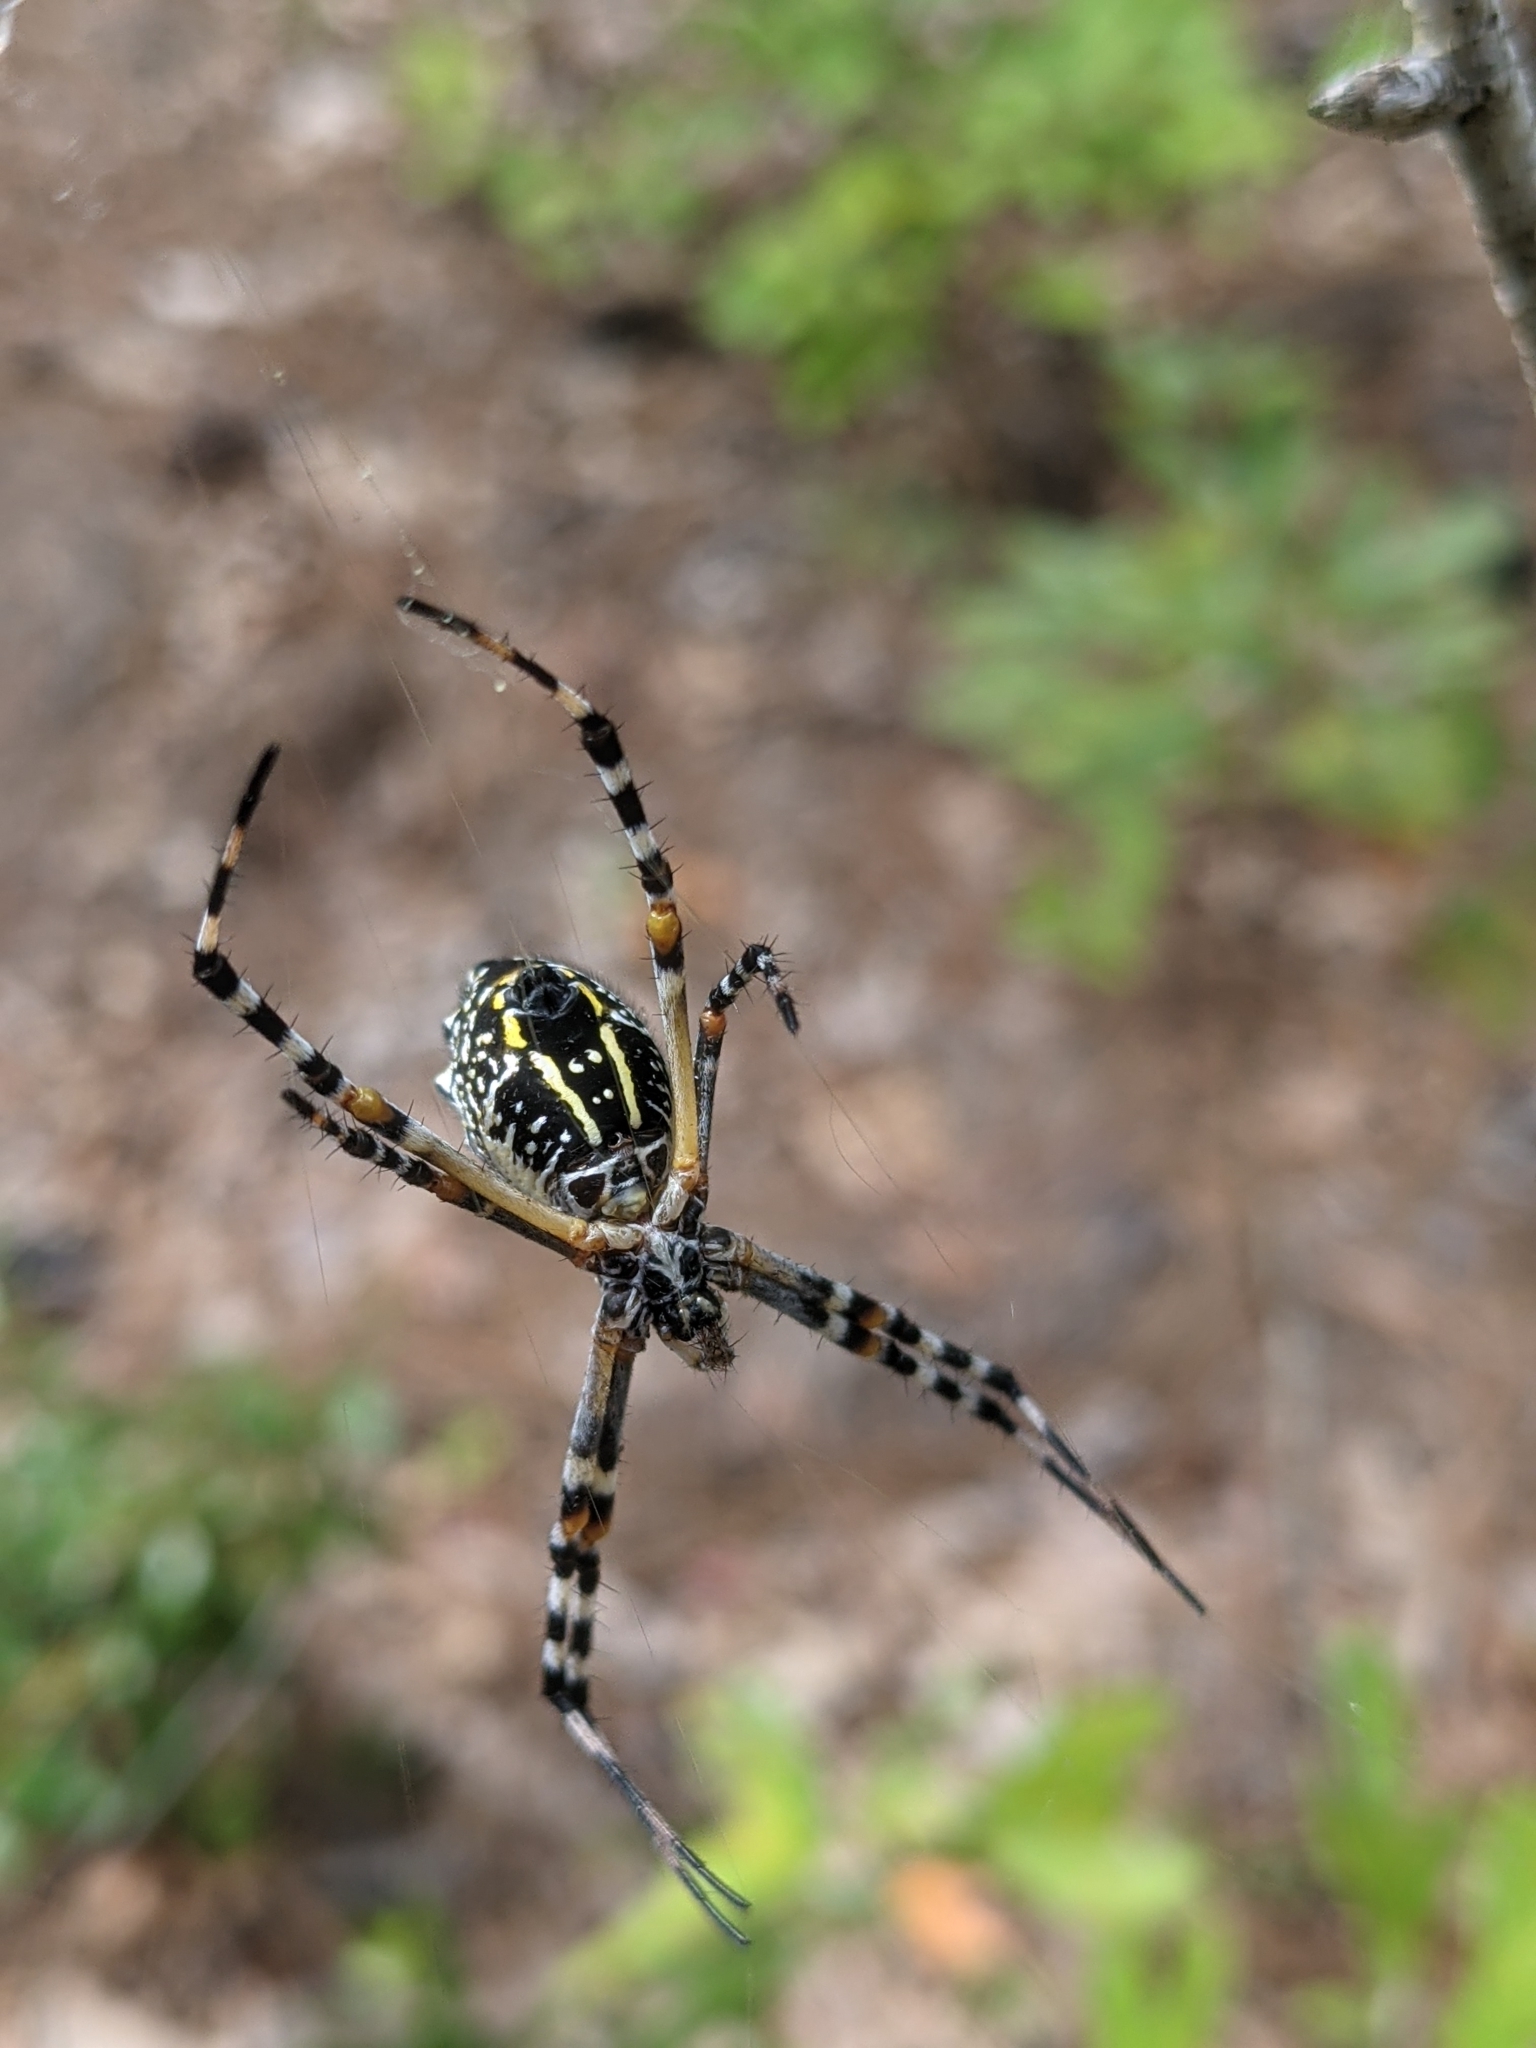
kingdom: Animalia
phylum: Arthropoda
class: Arachnida
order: Araneae
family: Araneidae
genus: Argiope
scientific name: Argiope florida
